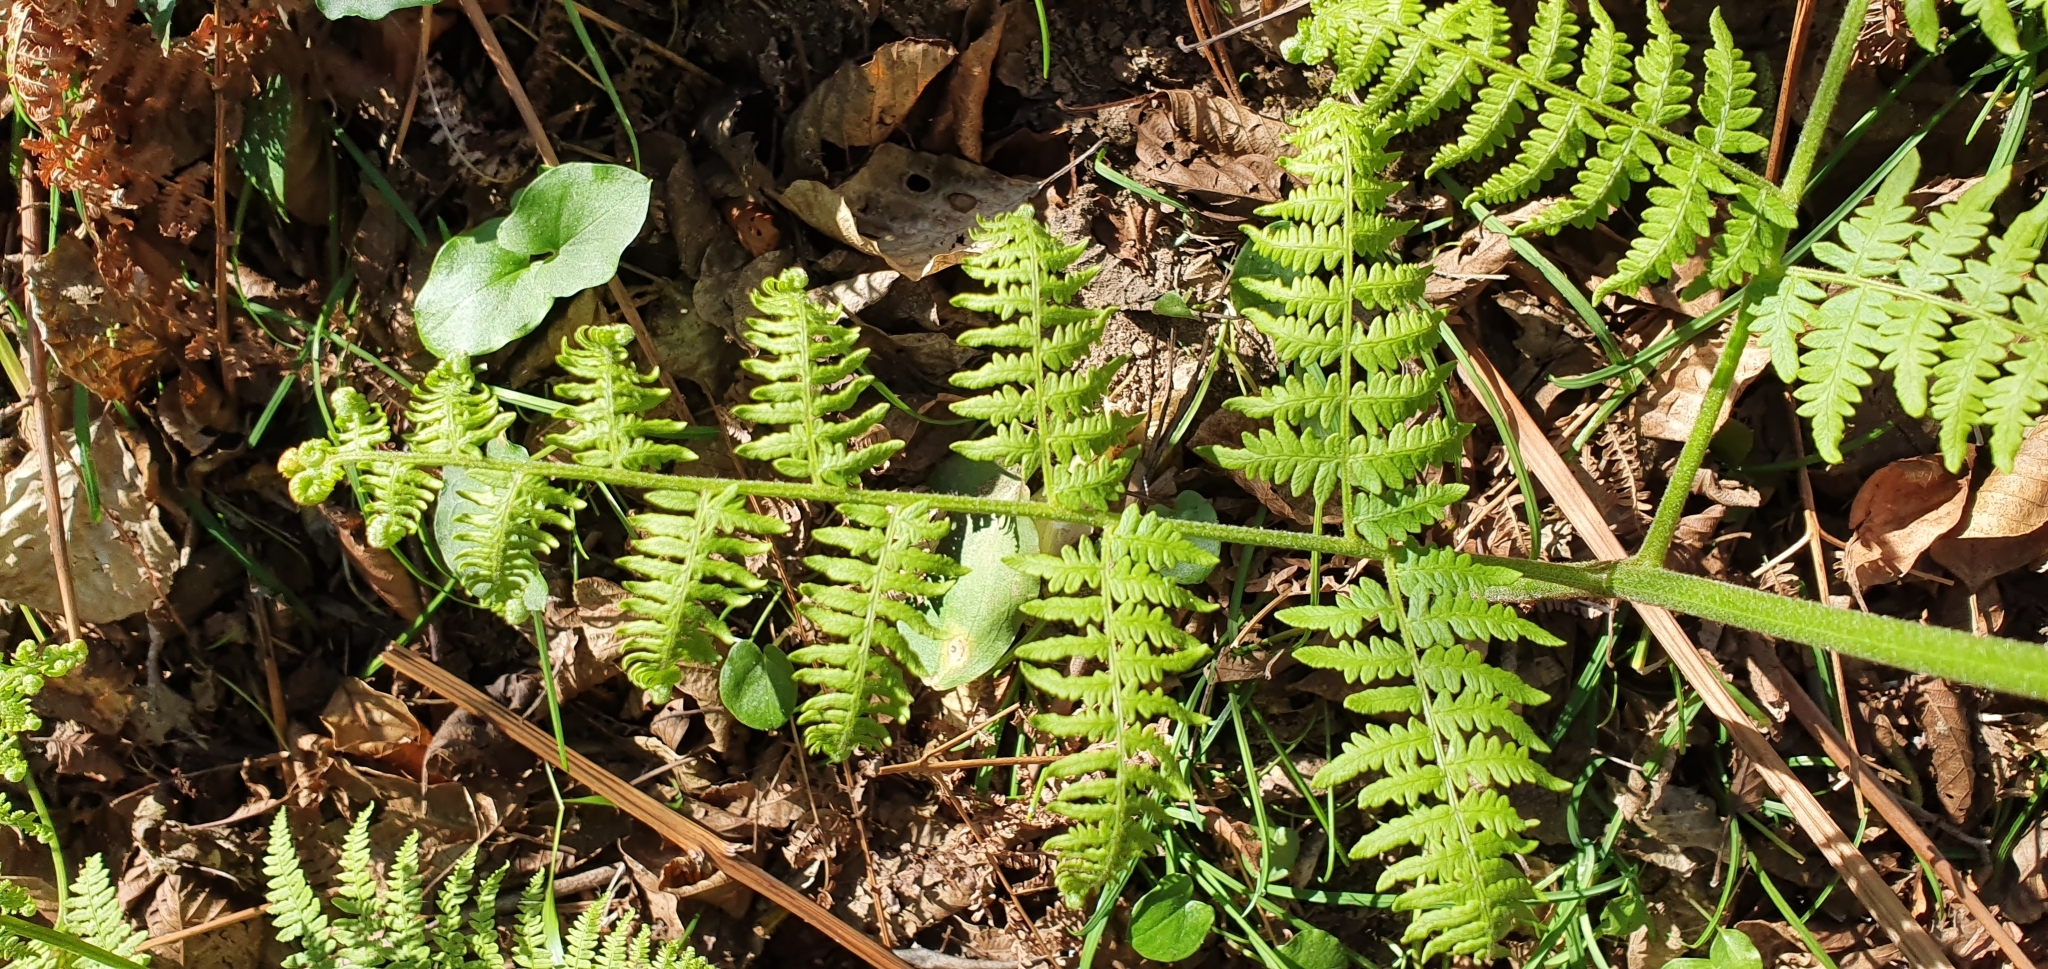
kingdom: Plantae
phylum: Tracheophyta
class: Polypodiopsida
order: Polypodiales
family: Dennstaedtiaceae
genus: Pteridium
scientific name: Pteridium aquilinum
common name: Bracken
